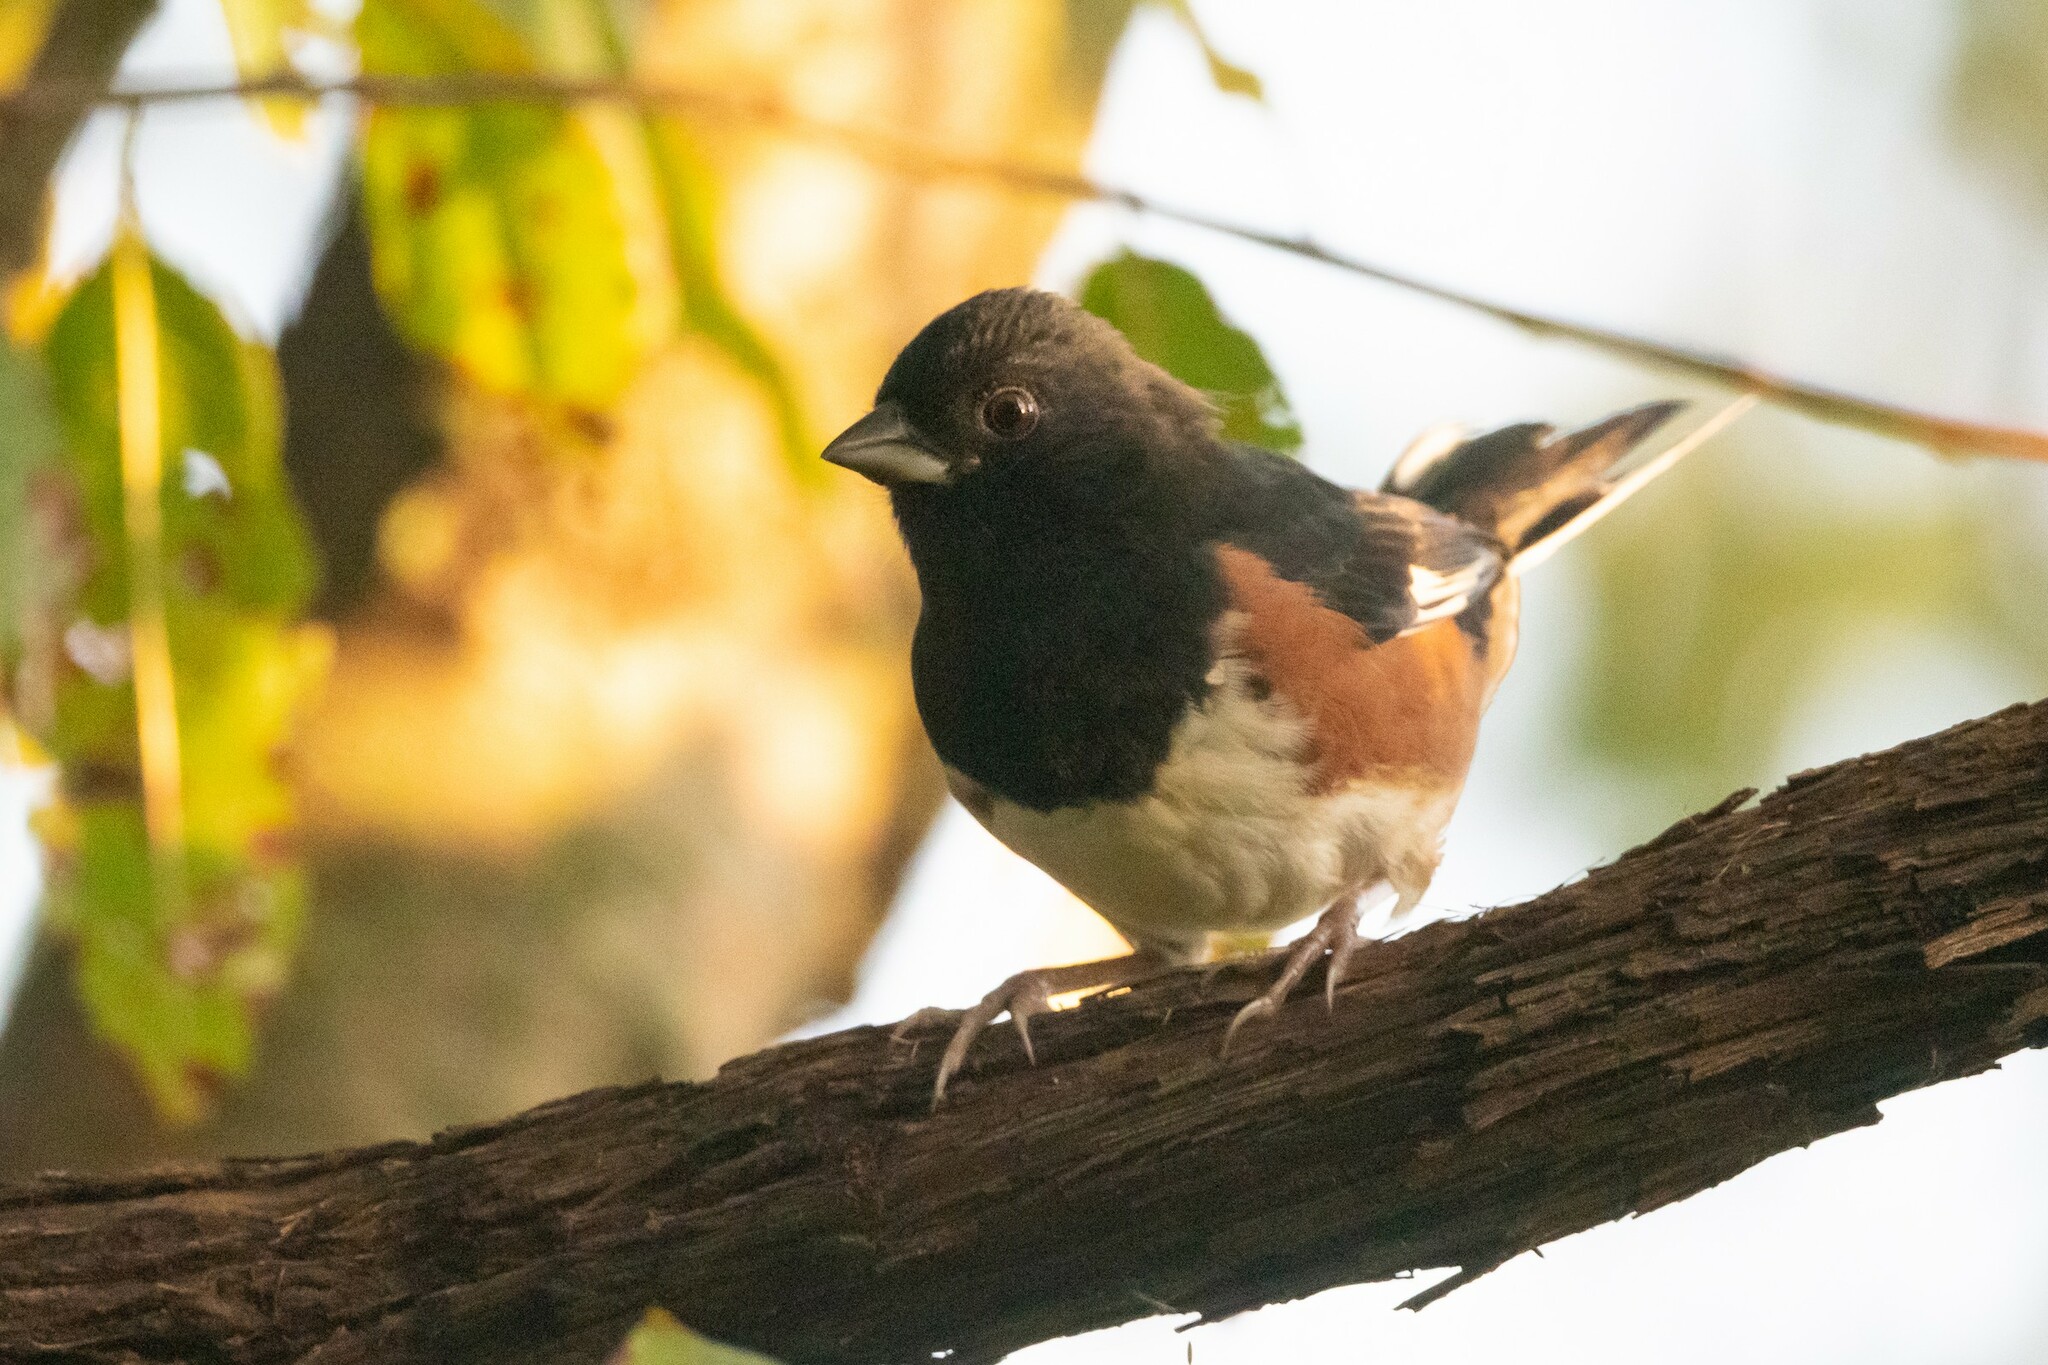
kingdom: Animalia
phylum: Chordata
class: Aves
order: Passeriformes
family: Passerellidae
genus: Pipilo
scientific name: Pipilo erythrophthalmus
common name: Eastern towhee
